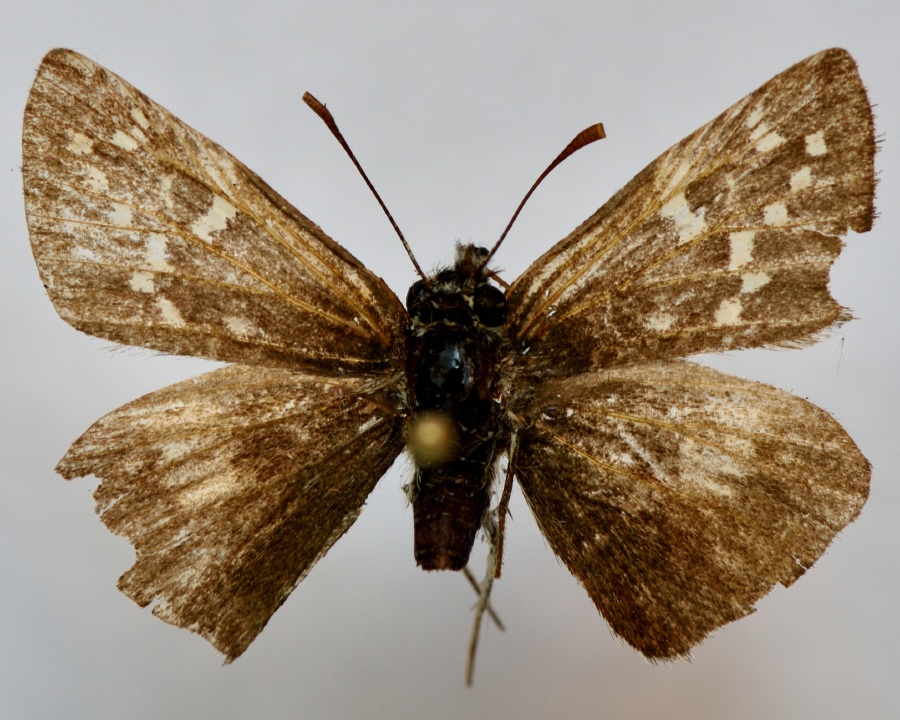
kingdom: Animalia
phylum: Arthropoda
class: Insecta
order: Lepidoptera
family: Hesperiidae
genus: Pyrgus
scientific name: Pyrgus serratulae
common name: Olive skipper
